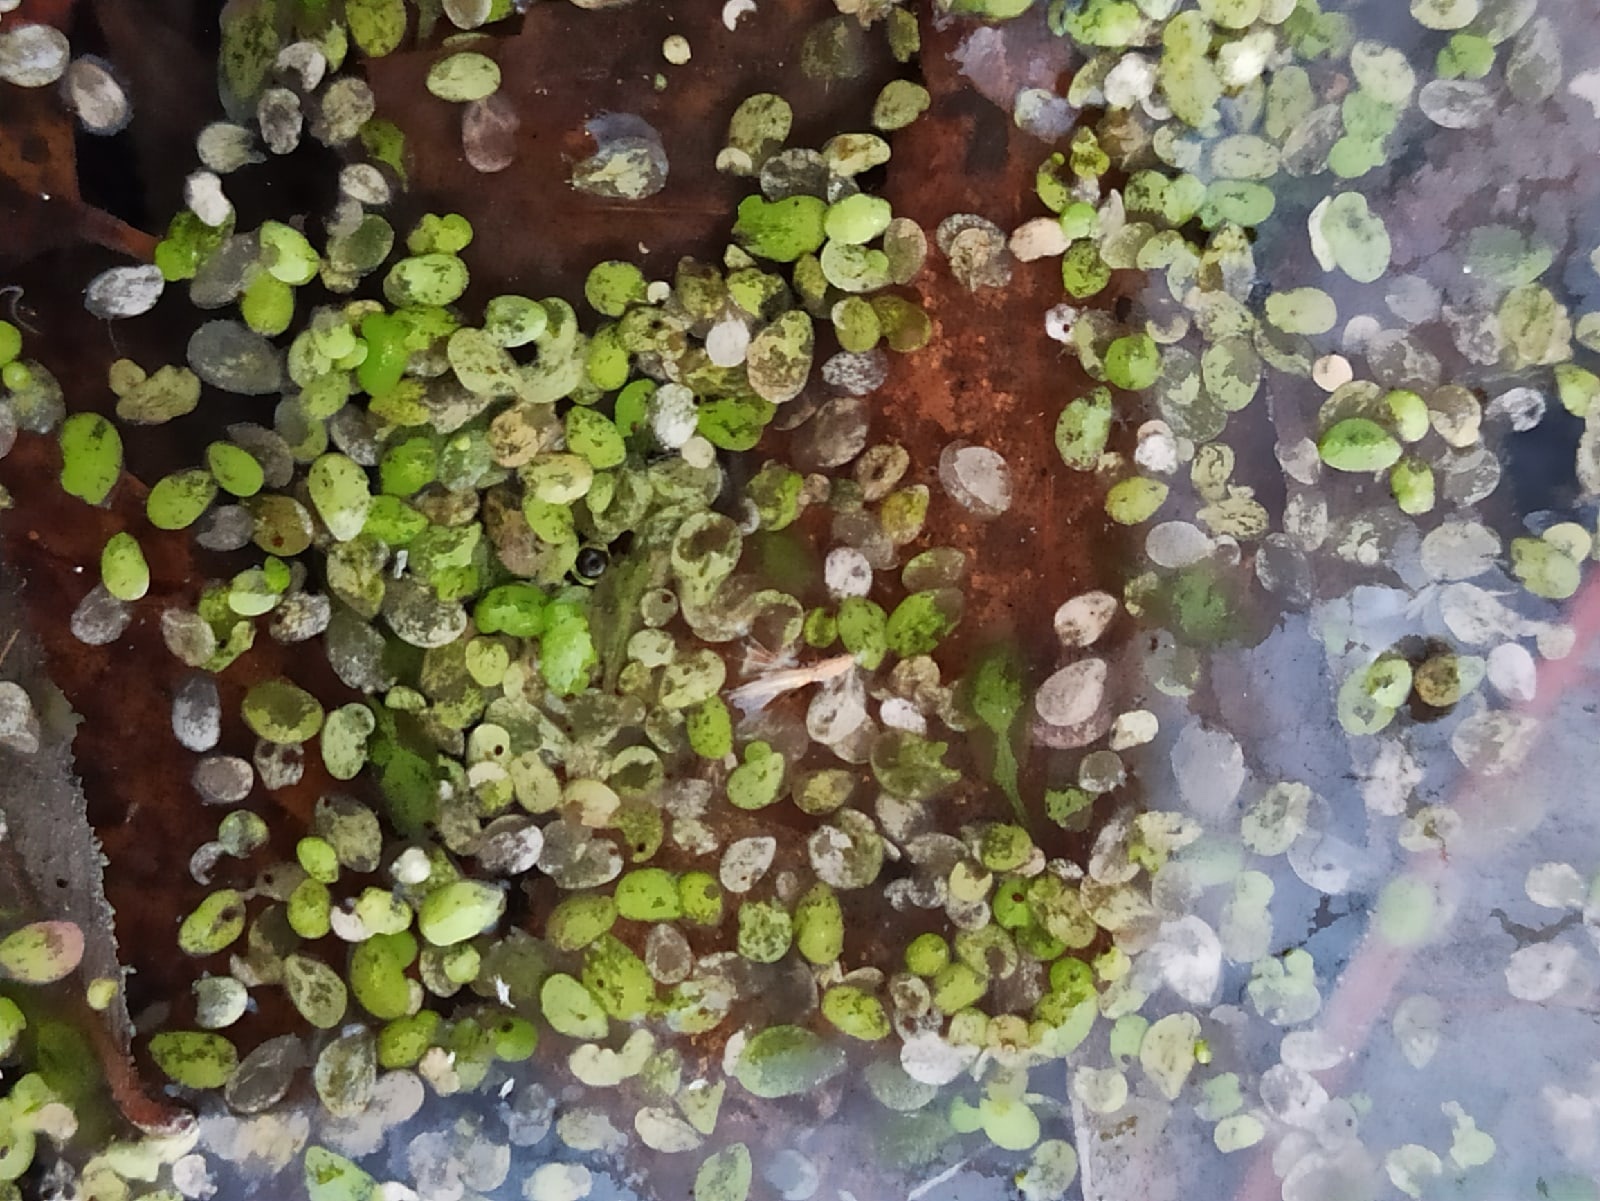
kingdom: Plantae
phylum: Tracheophyta
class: Liliopsida
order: Alismatales
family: Araceae
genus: Lemna
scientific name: Lemna
